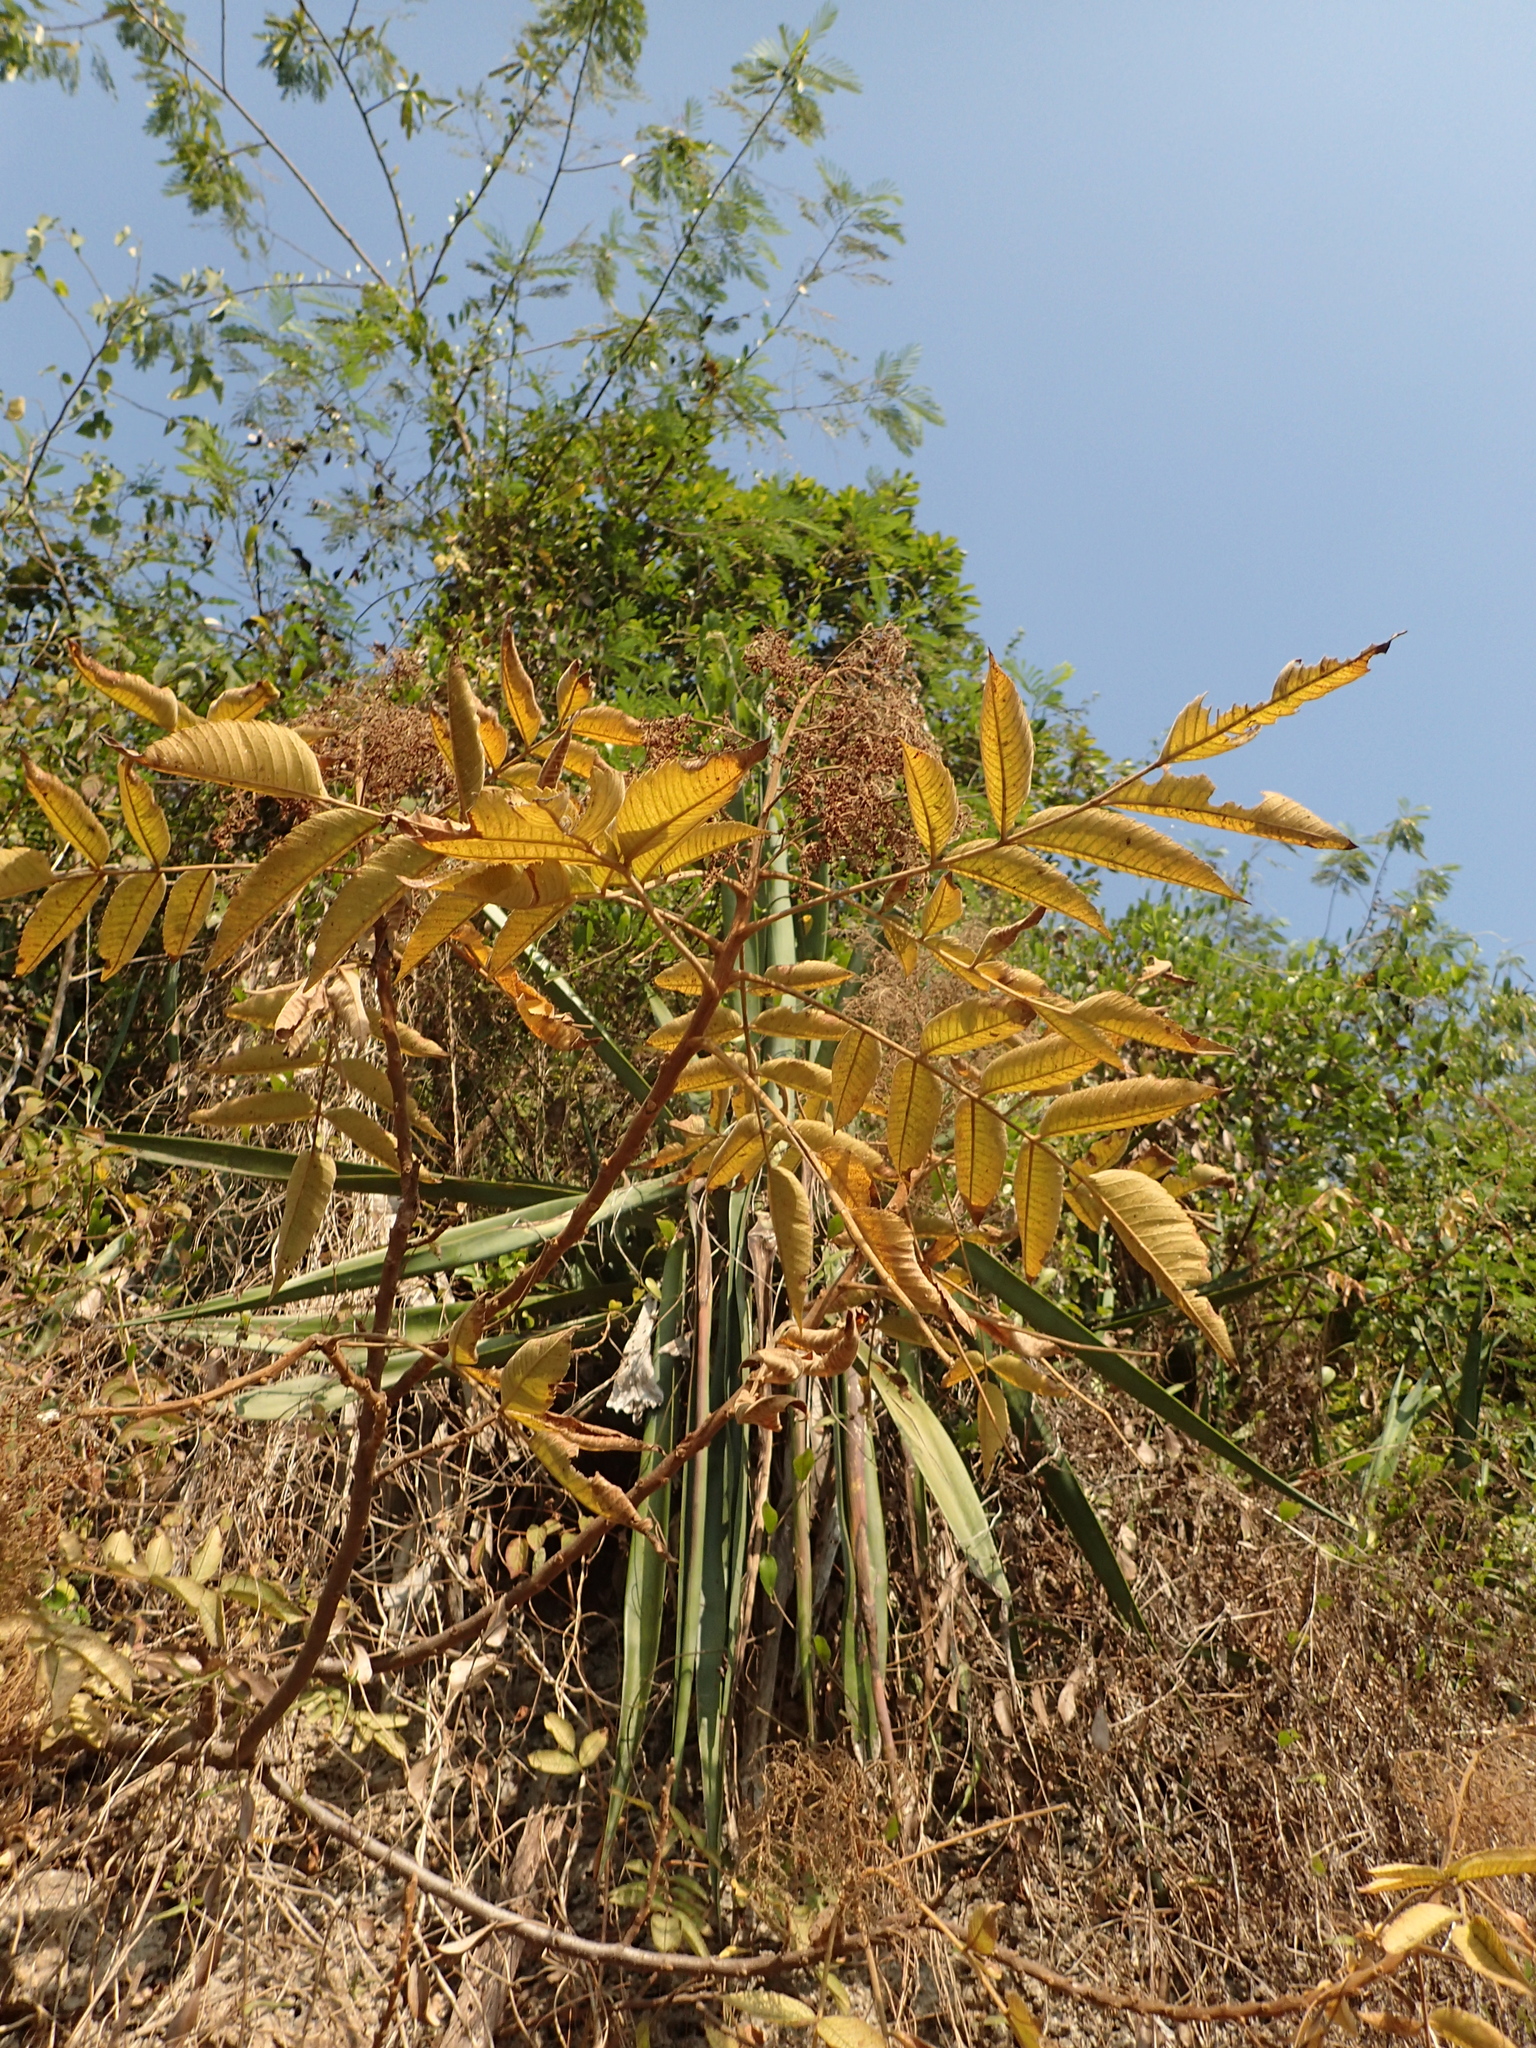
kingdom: Plantae
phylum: Tracheophyta
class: Magnoliopsida
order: Sapindales
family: Anacardiaceae
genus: Rhus
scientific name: Rhus chinensis
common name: Chinese gall
